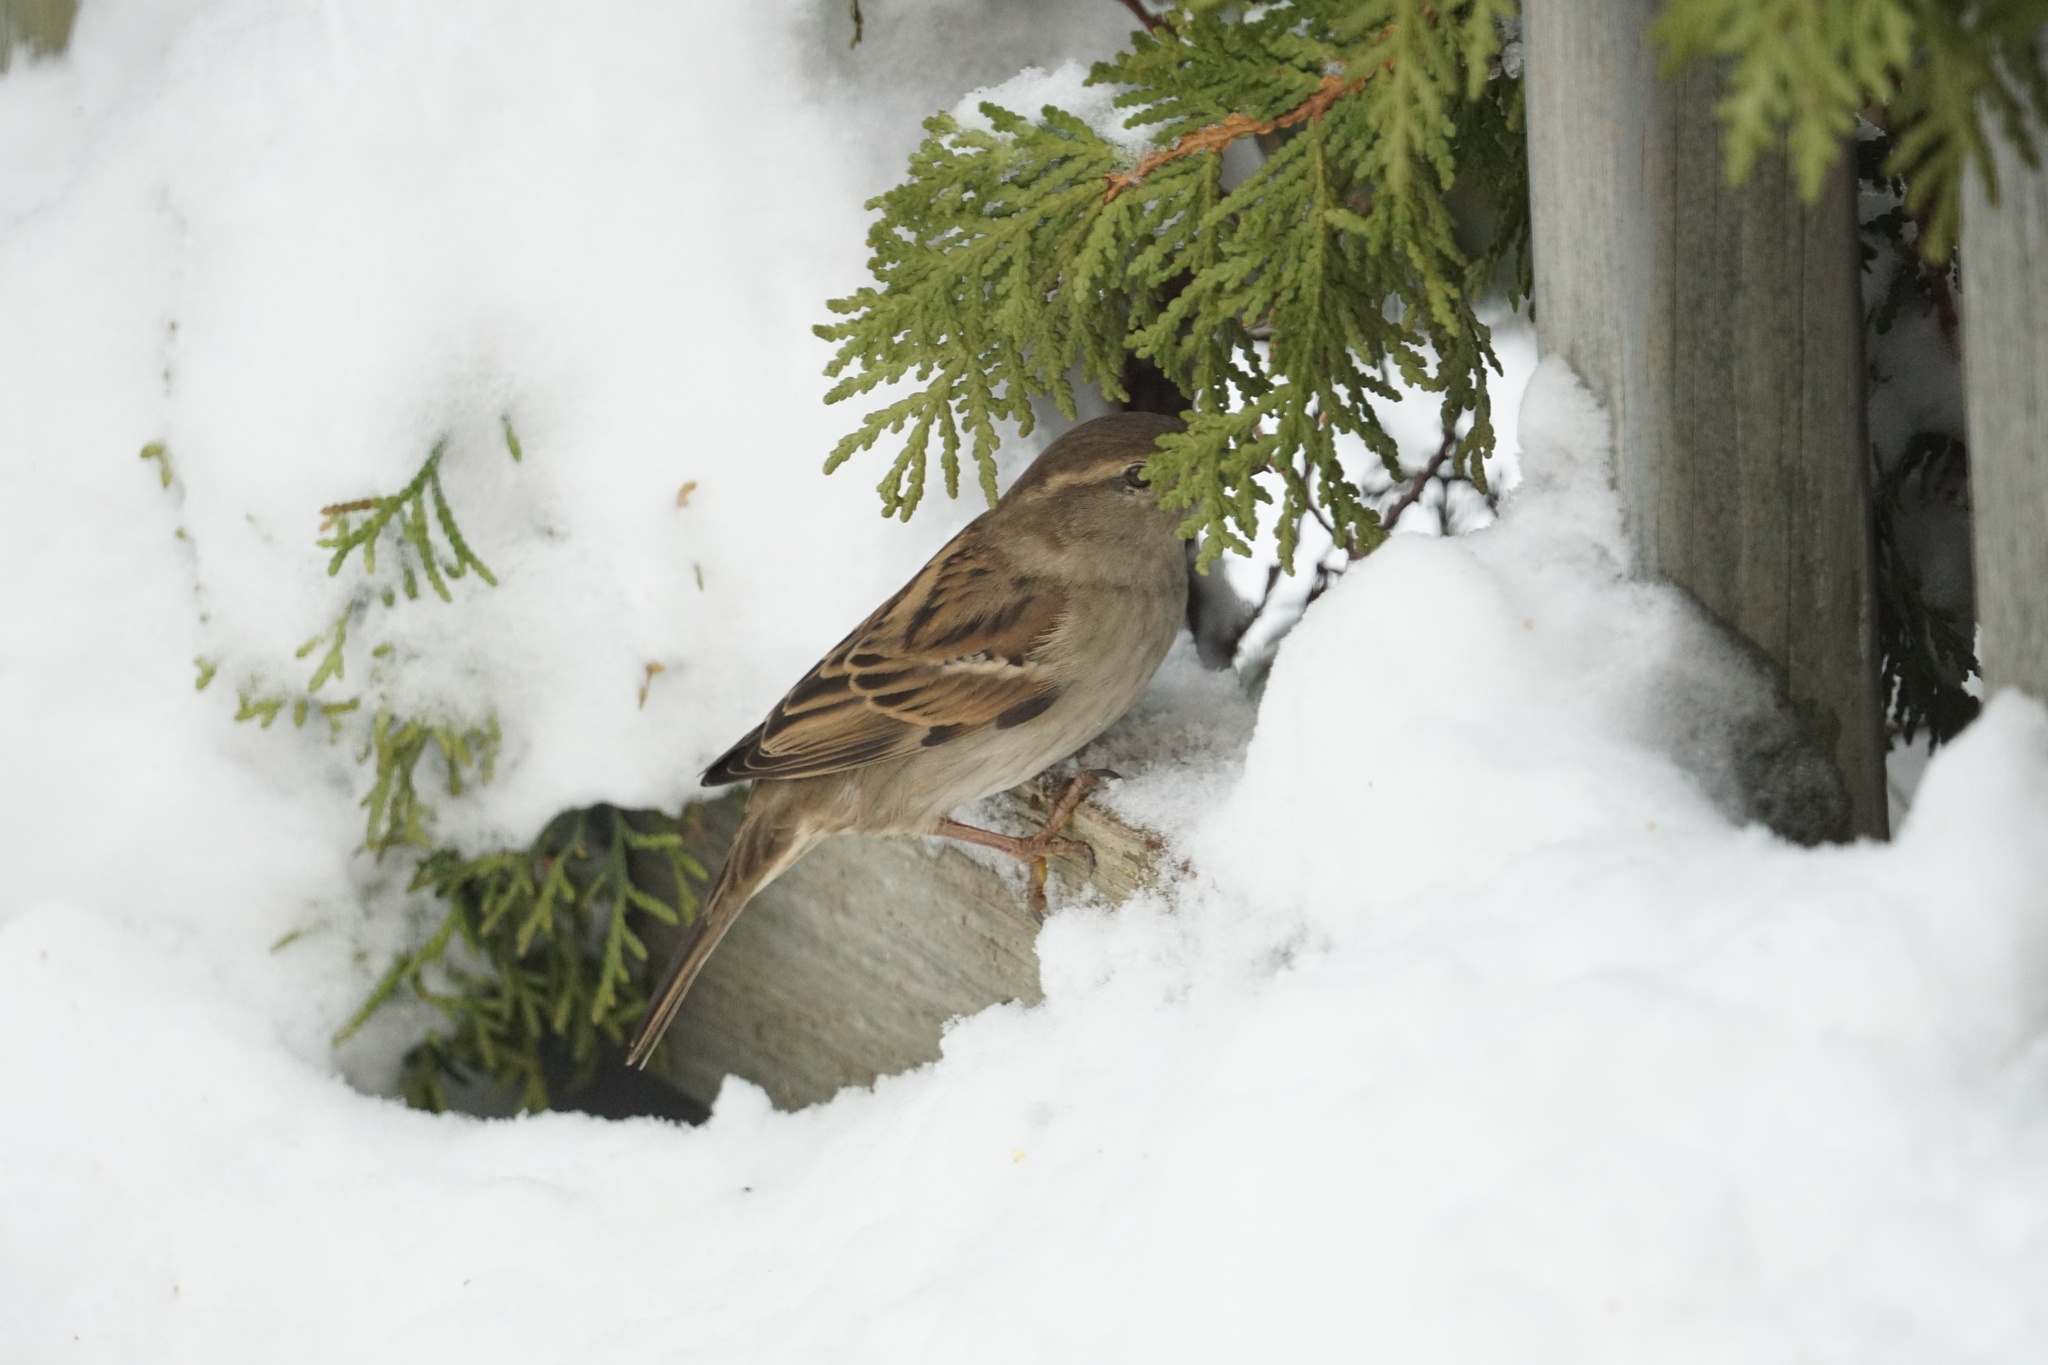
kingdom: Animalia
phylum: Chordata
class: Aves
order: Passeriformes
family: Passeridae
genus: Passer
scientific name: Passer domesticus
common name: House sparrow
